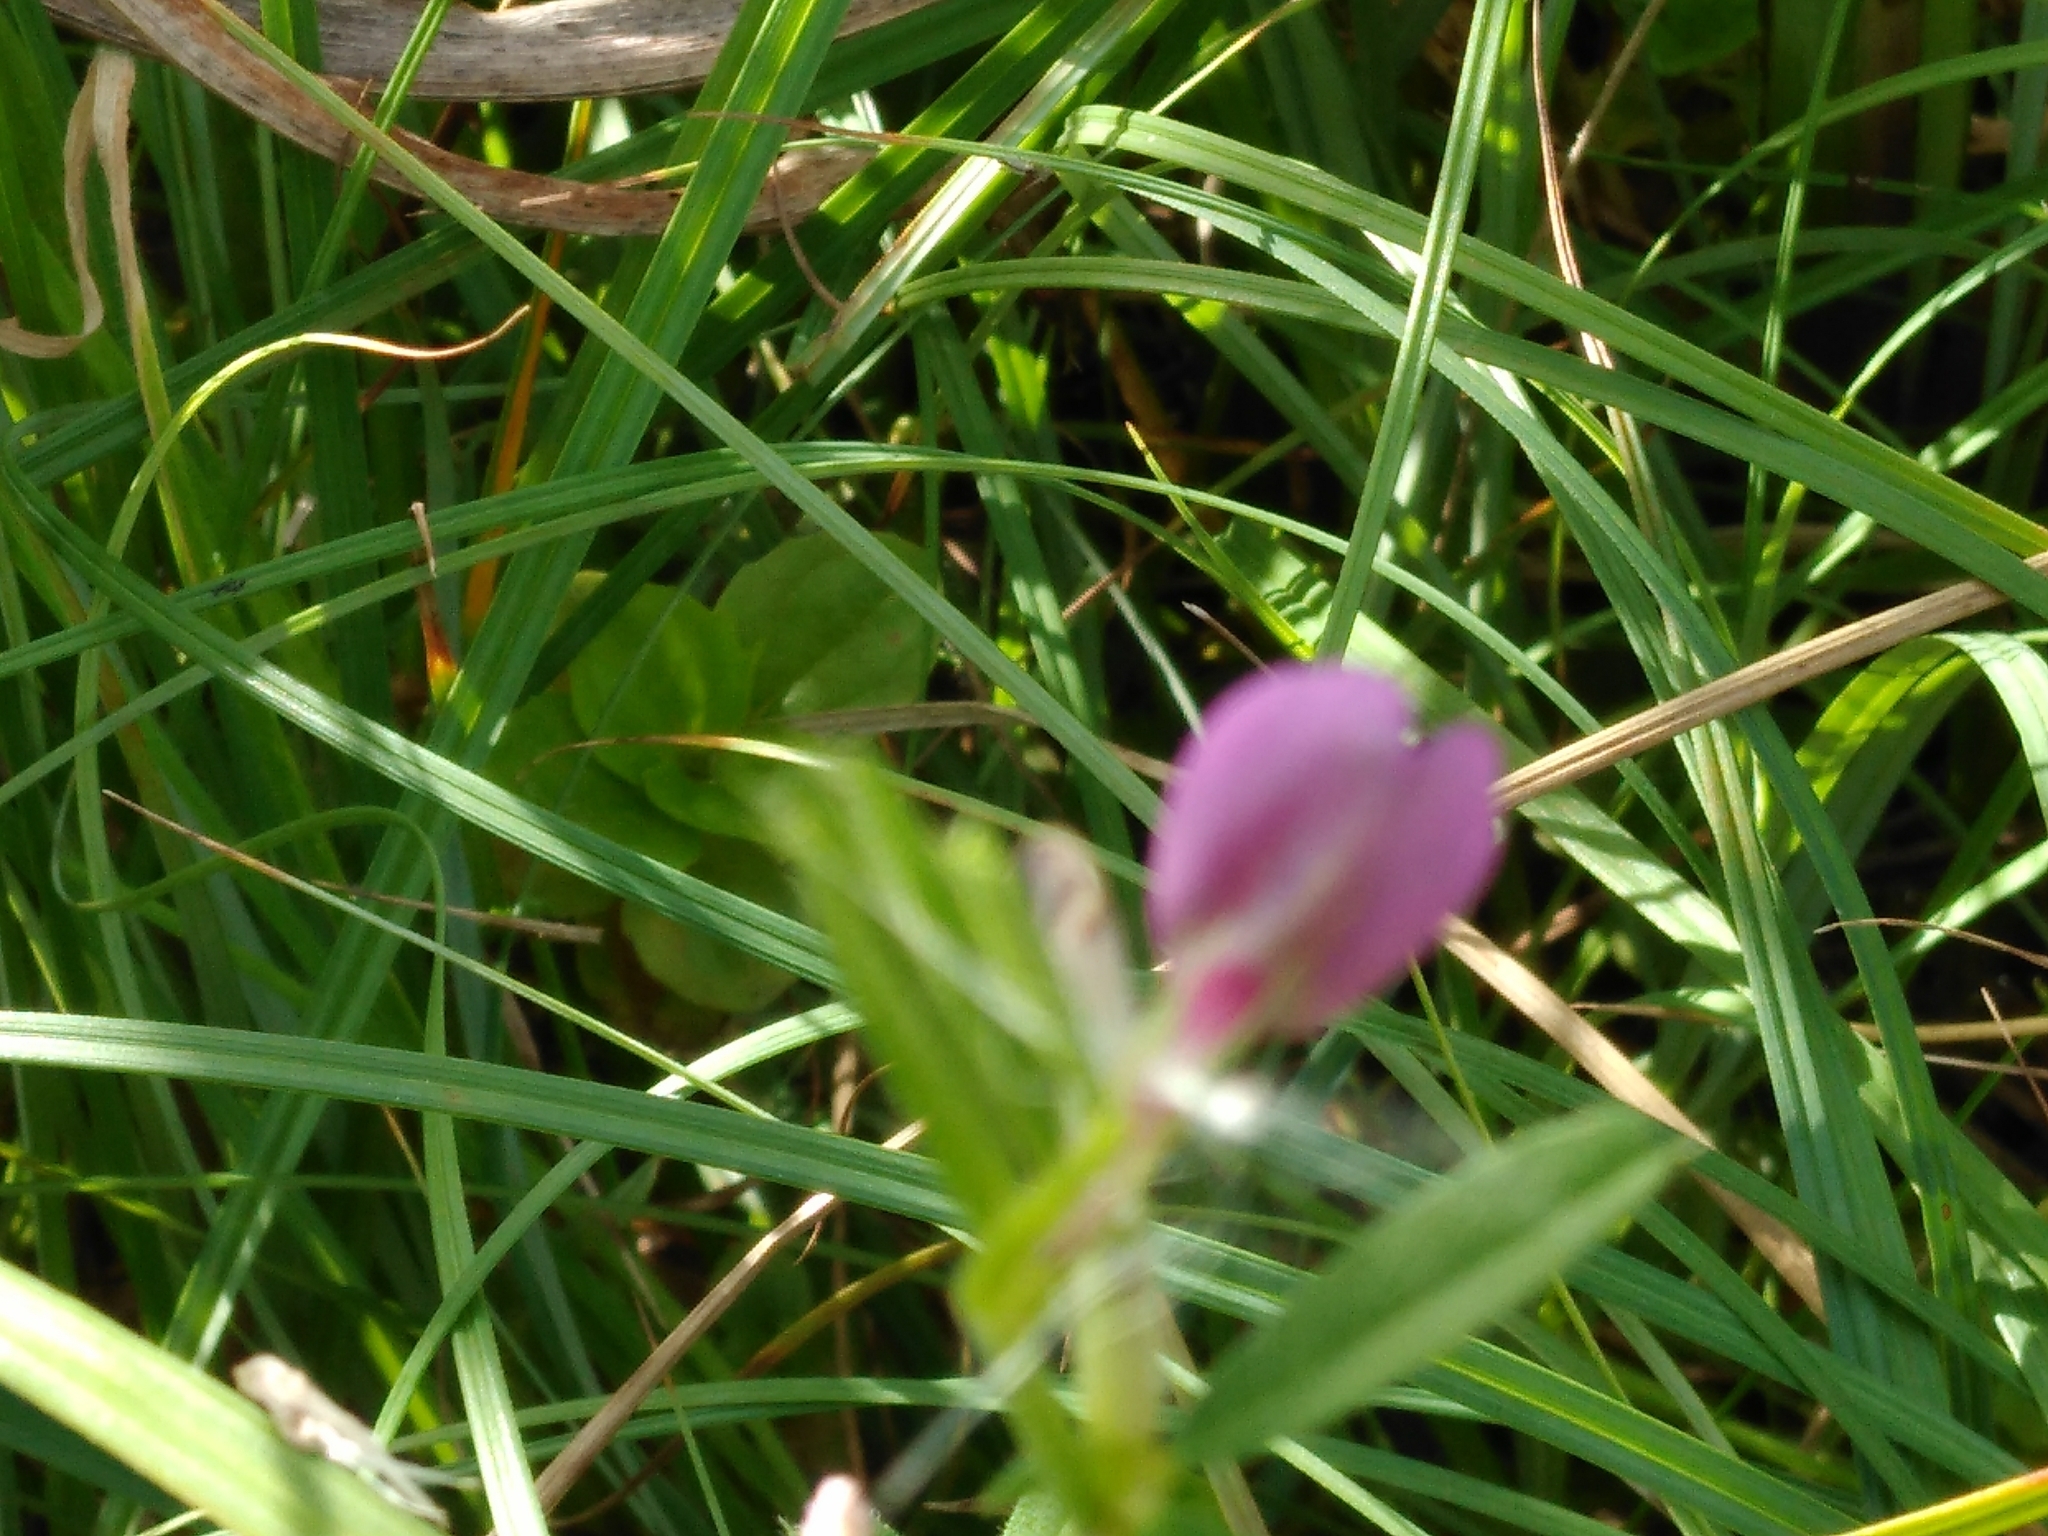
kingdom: Plantae
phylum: Tracheophyta
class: Magnoliopsida
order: Fabales
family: Fabaceae
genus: Vicia
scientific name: Vicia sativa
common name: Garden vetch
